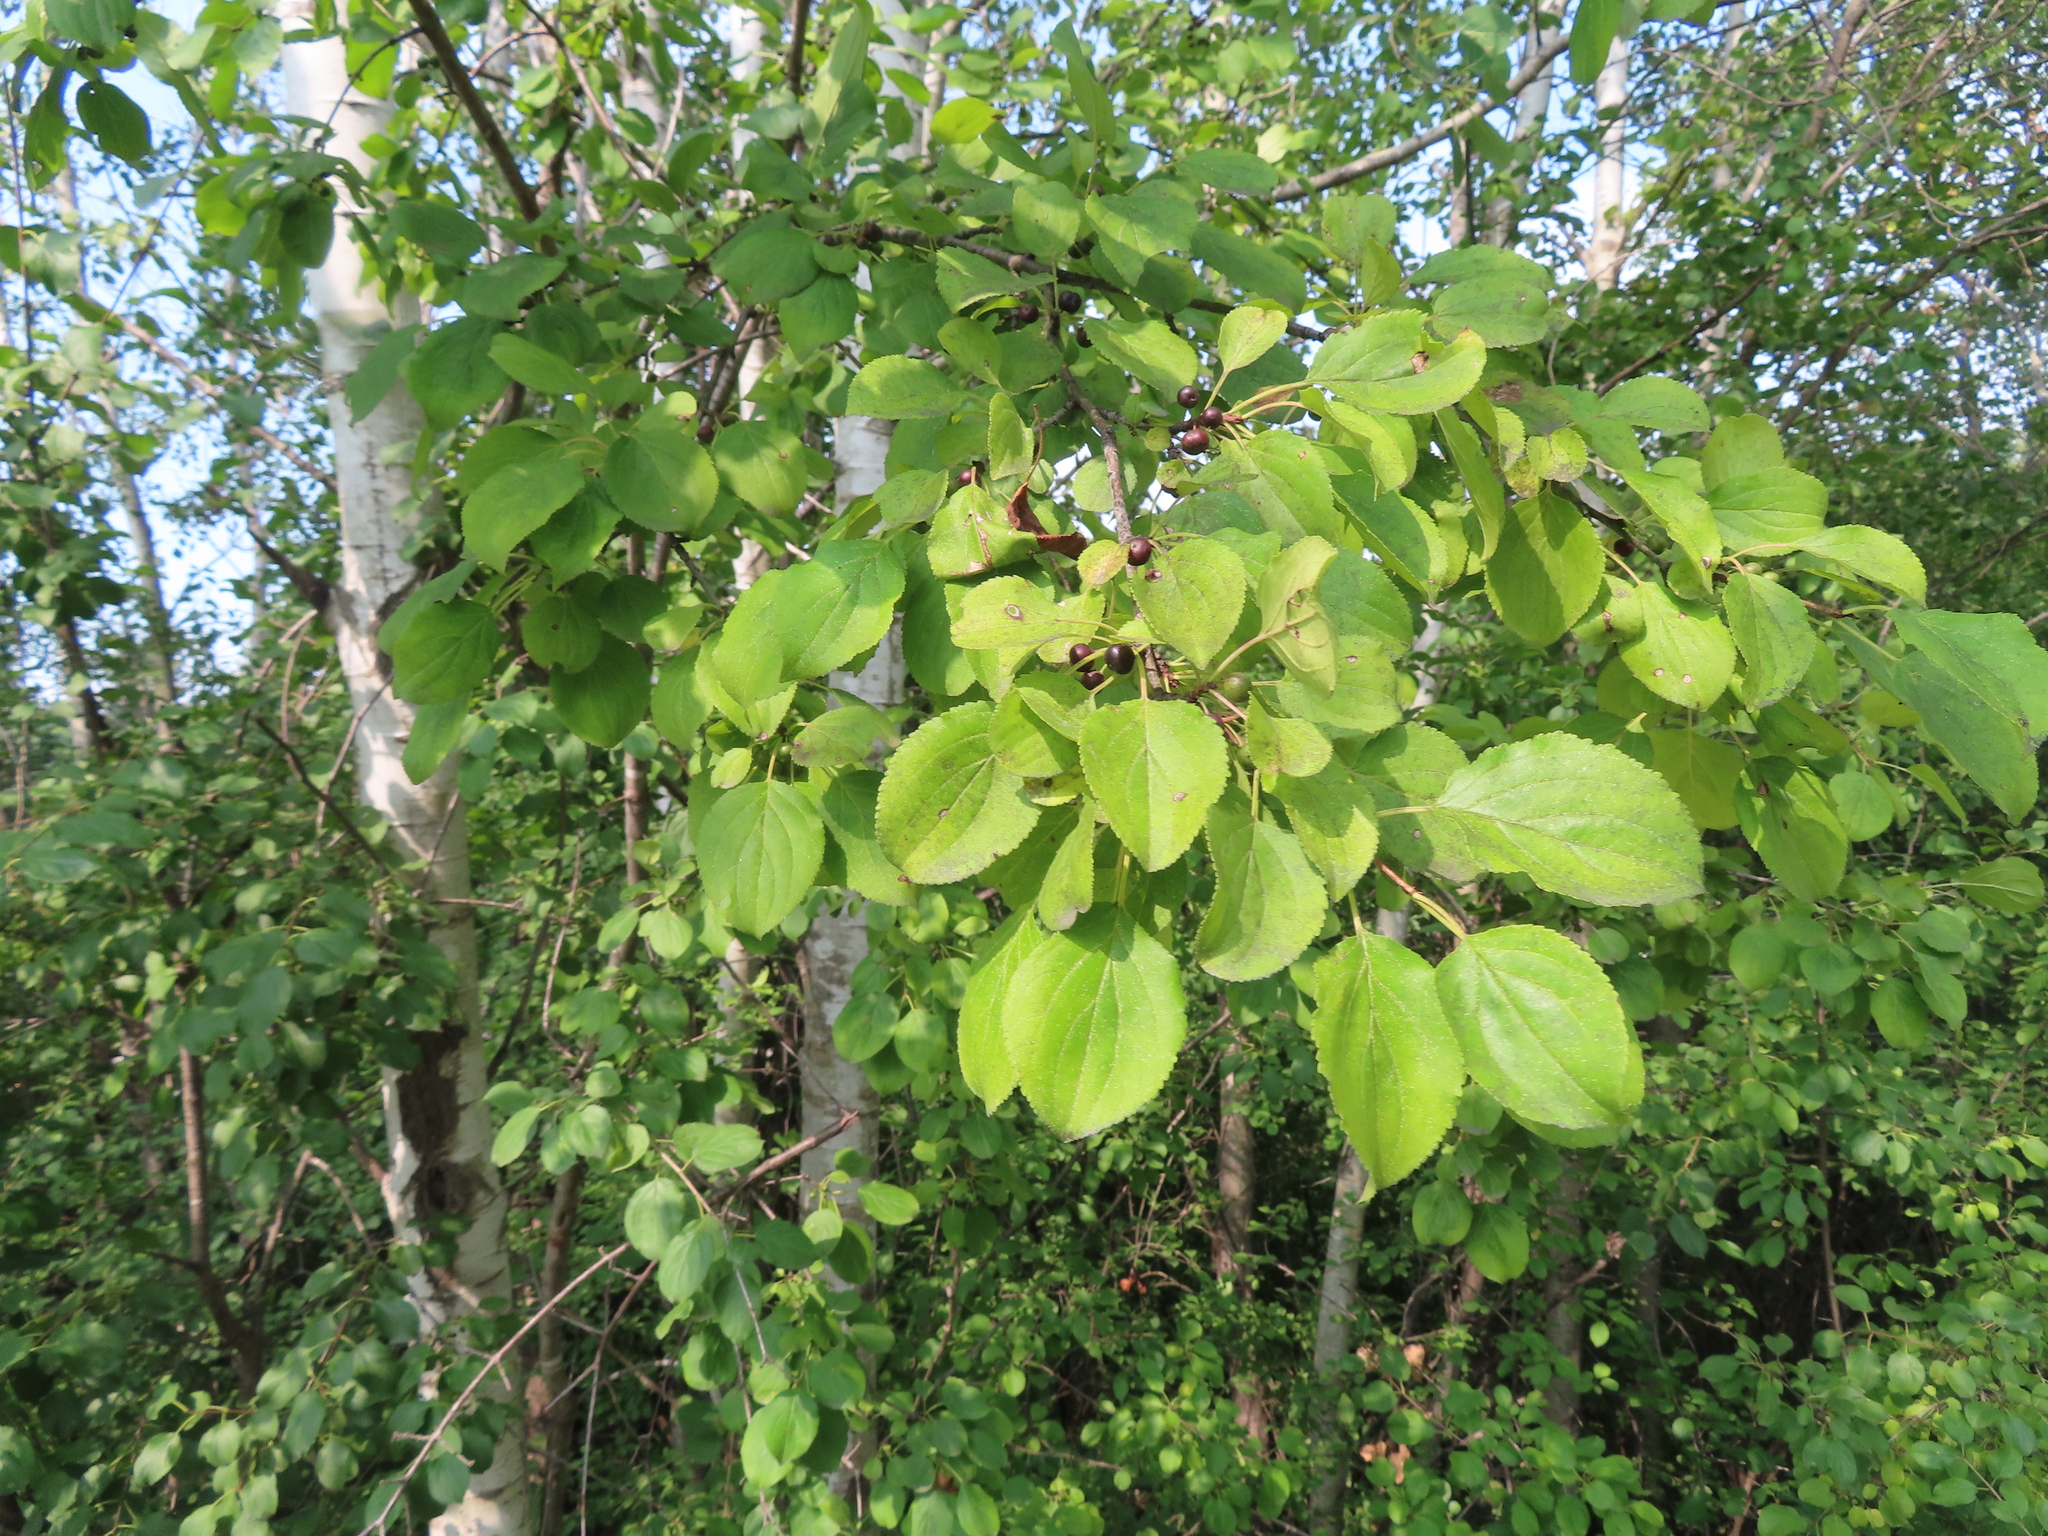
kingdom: Plantae
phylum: Tracheophyta
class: Magnoliopsida
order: Rosales
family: Rhamnaceae
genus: Rhamnus
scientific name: Rhamnus cathartica
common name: Common buckthorn
